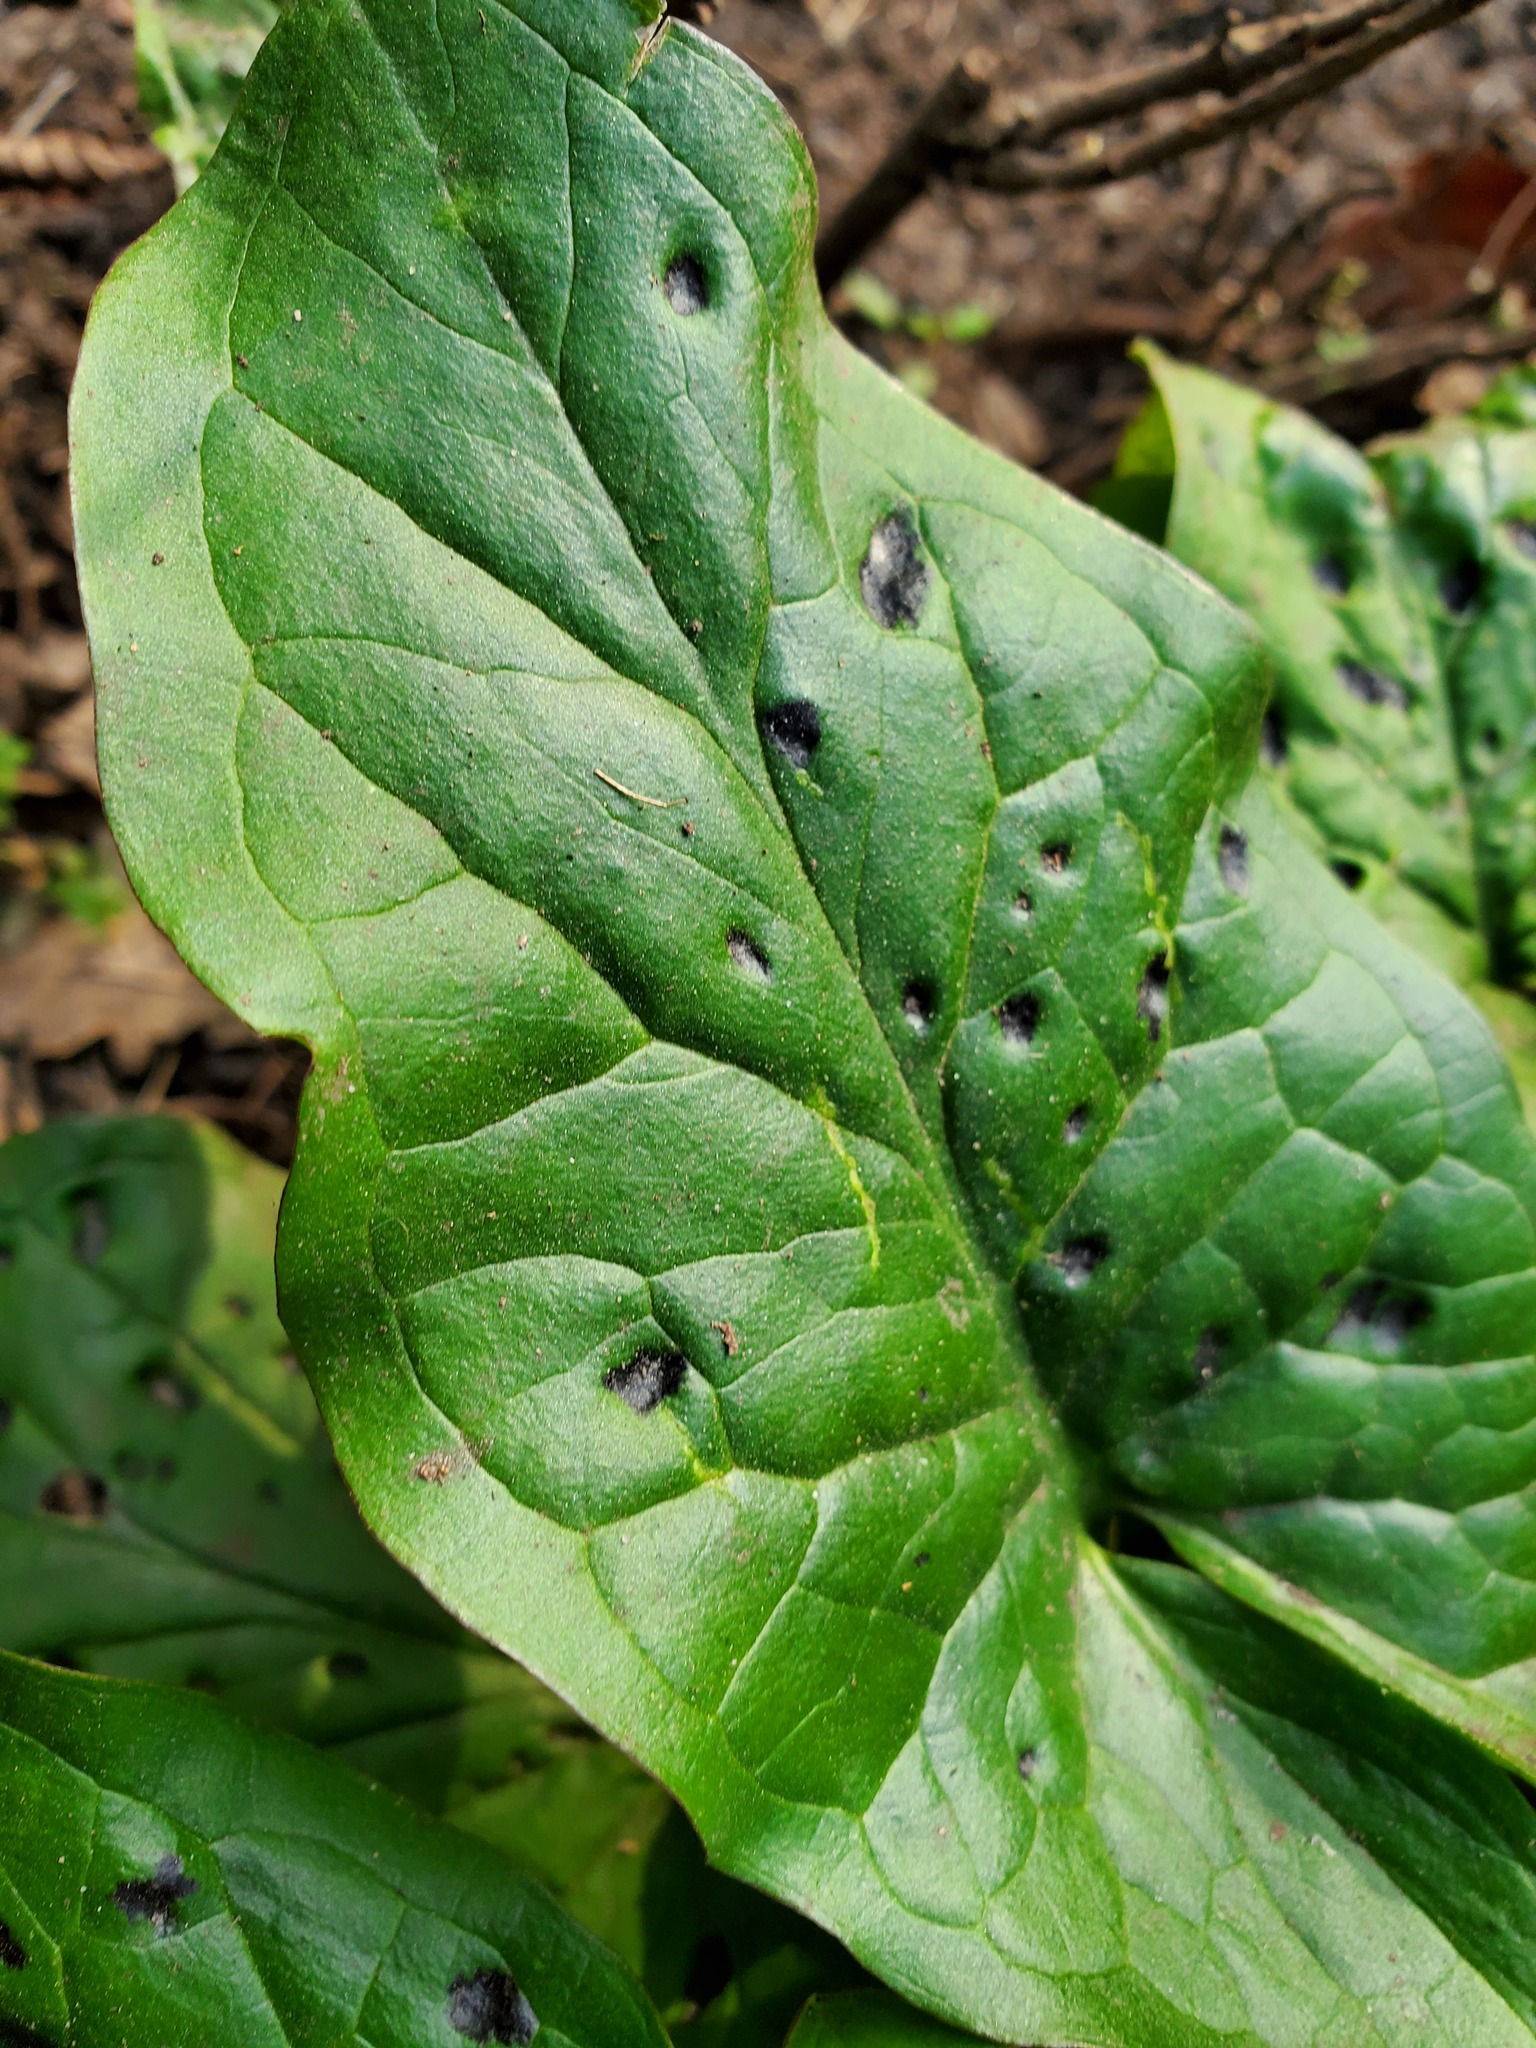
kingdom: Plantae
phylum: Tracheophyta
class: Liliopsida
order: Alismatales
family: Araceae
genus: Arum
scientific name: Arum maculatum
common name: Lords-and-ladies
